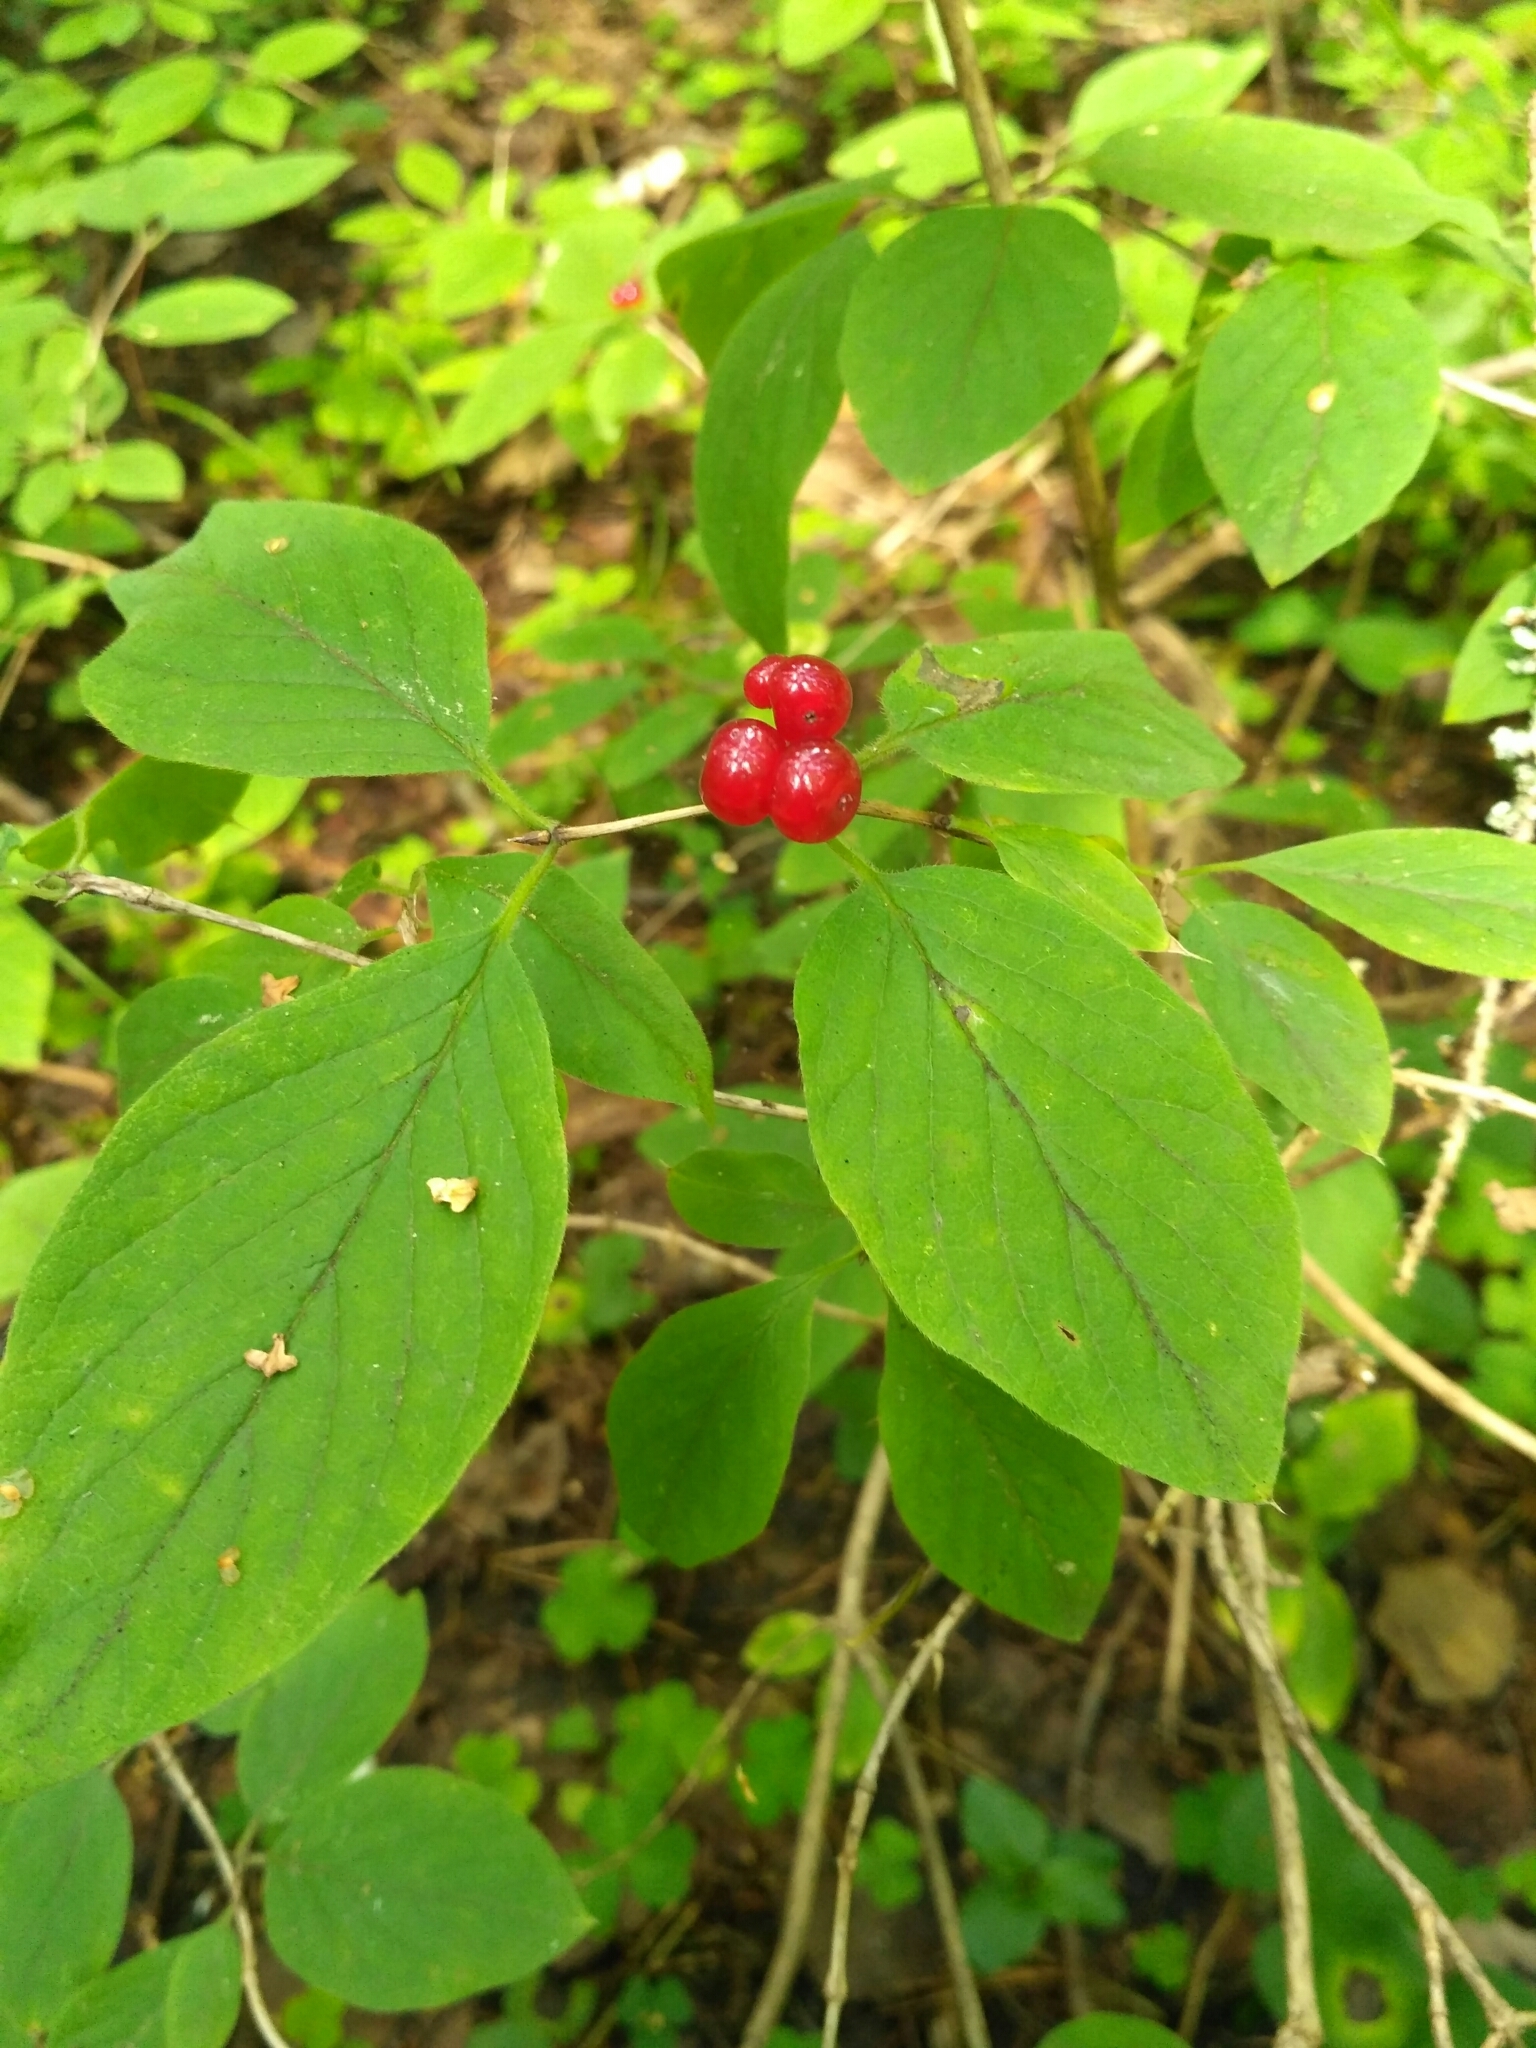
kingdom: Plantae
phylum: Tracheophyta
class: Magnoliopsida
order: Dipsacales
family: Caprifoliaceae
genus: Lonicera
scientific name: Lonicera xylosteum
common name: Fly honeysuckle
